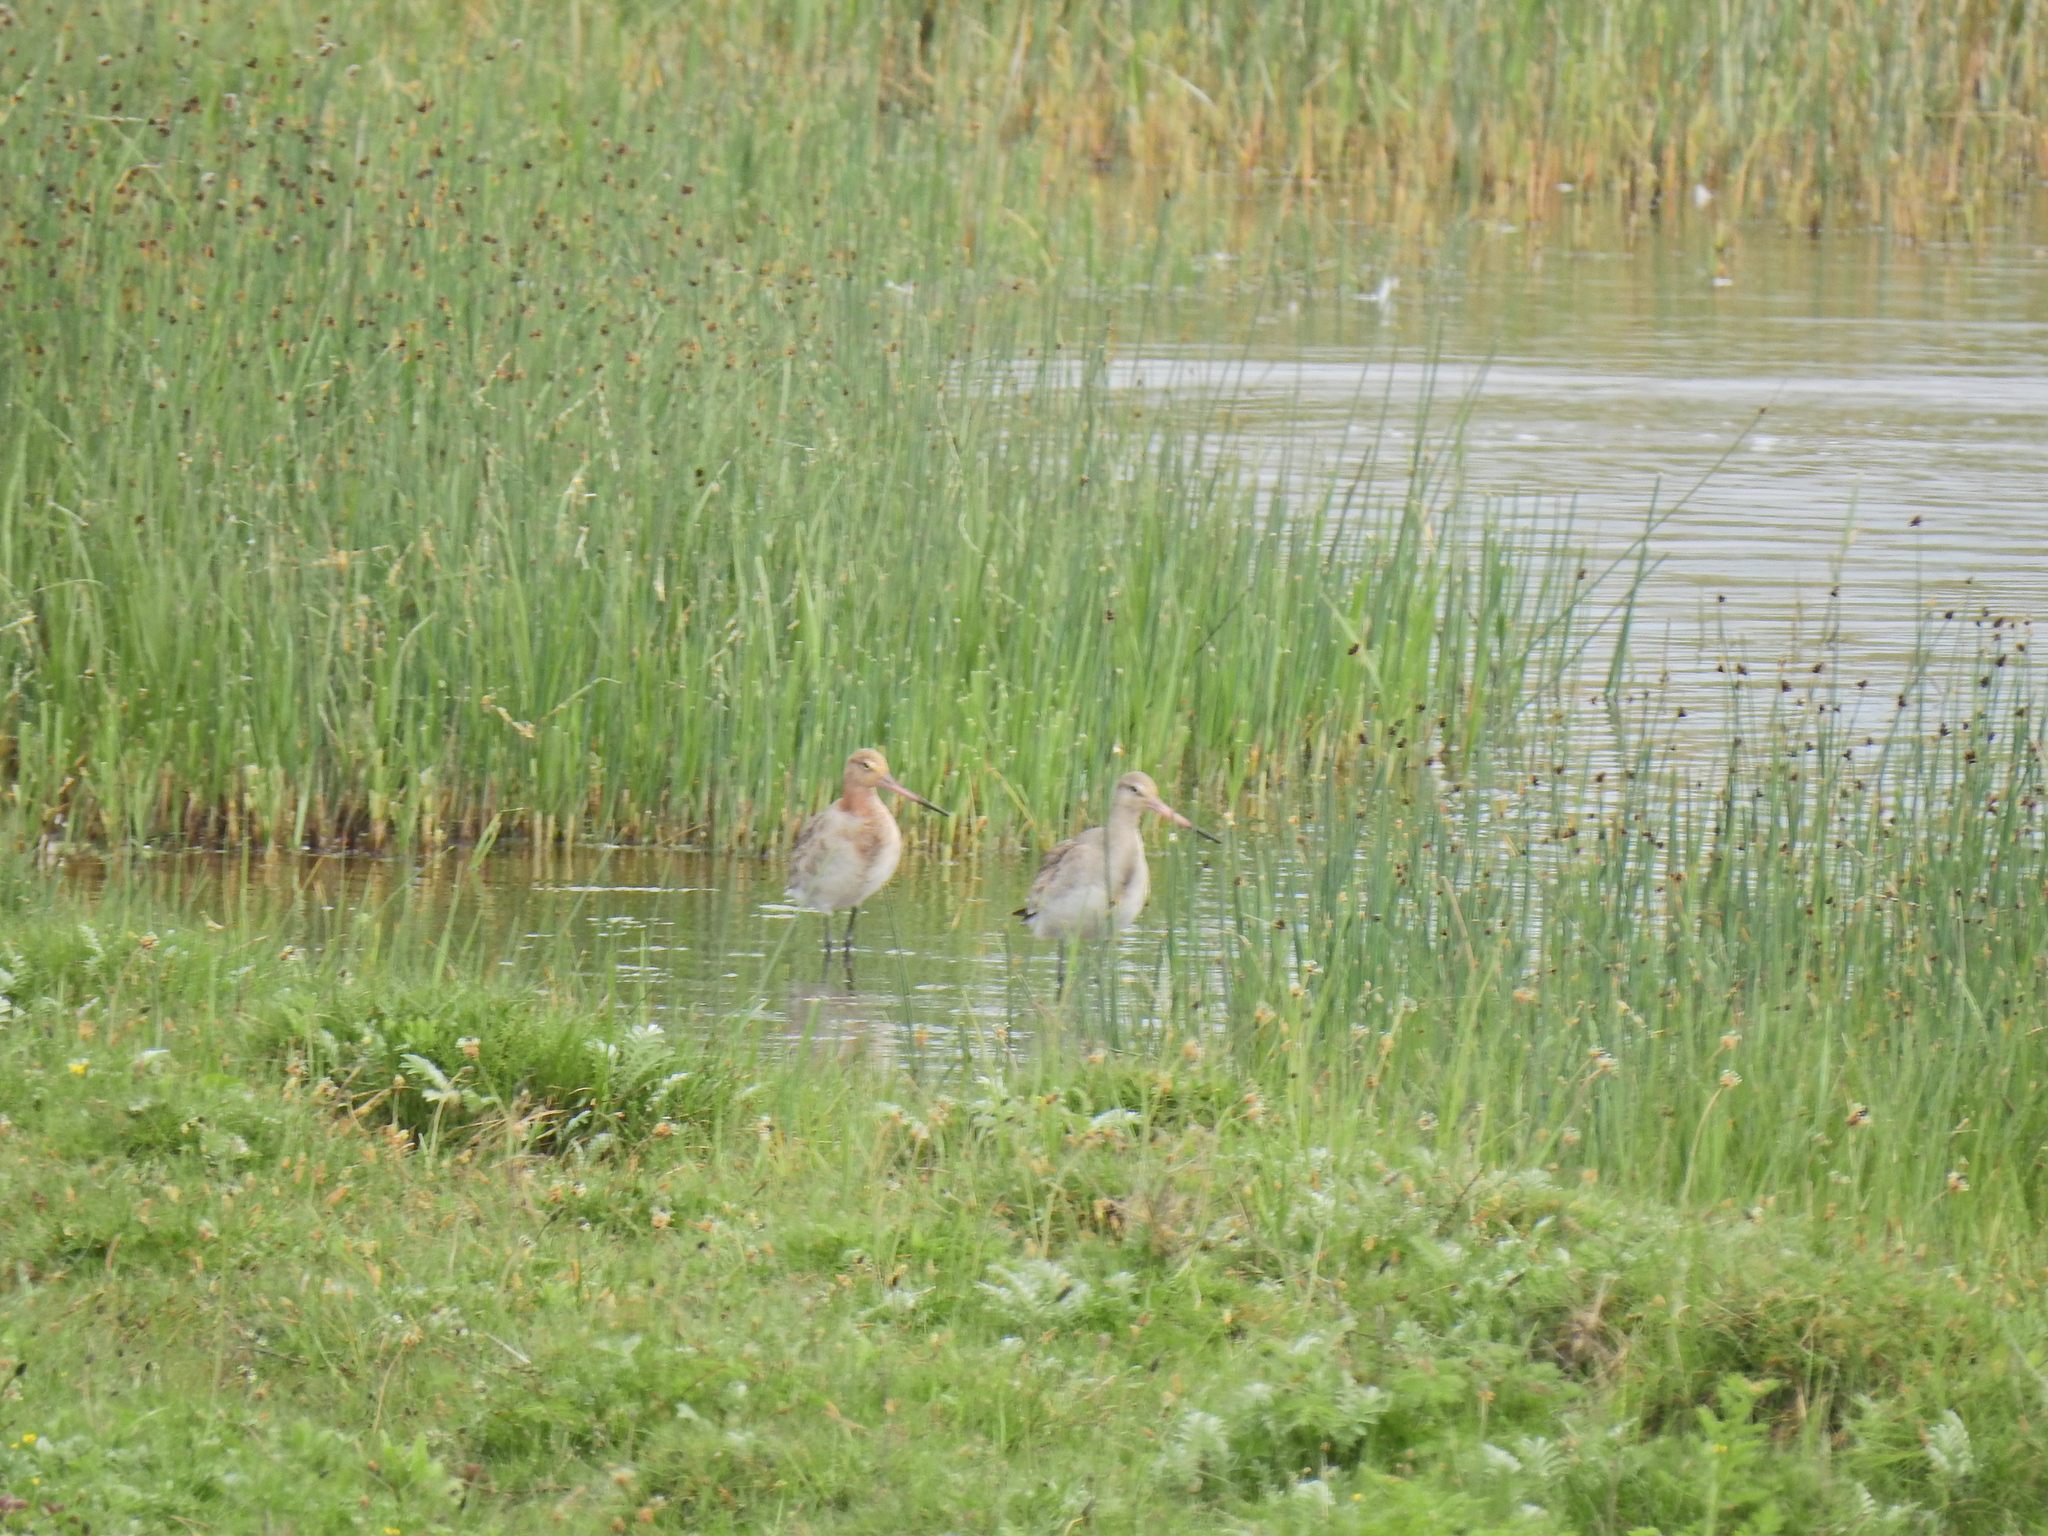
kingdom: Animalia
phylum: Chordata
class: Aves
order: Charadriiformes
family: Scolopacidae
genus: Limosa
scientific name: Limosa limosa
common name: Black-tailed godwit
